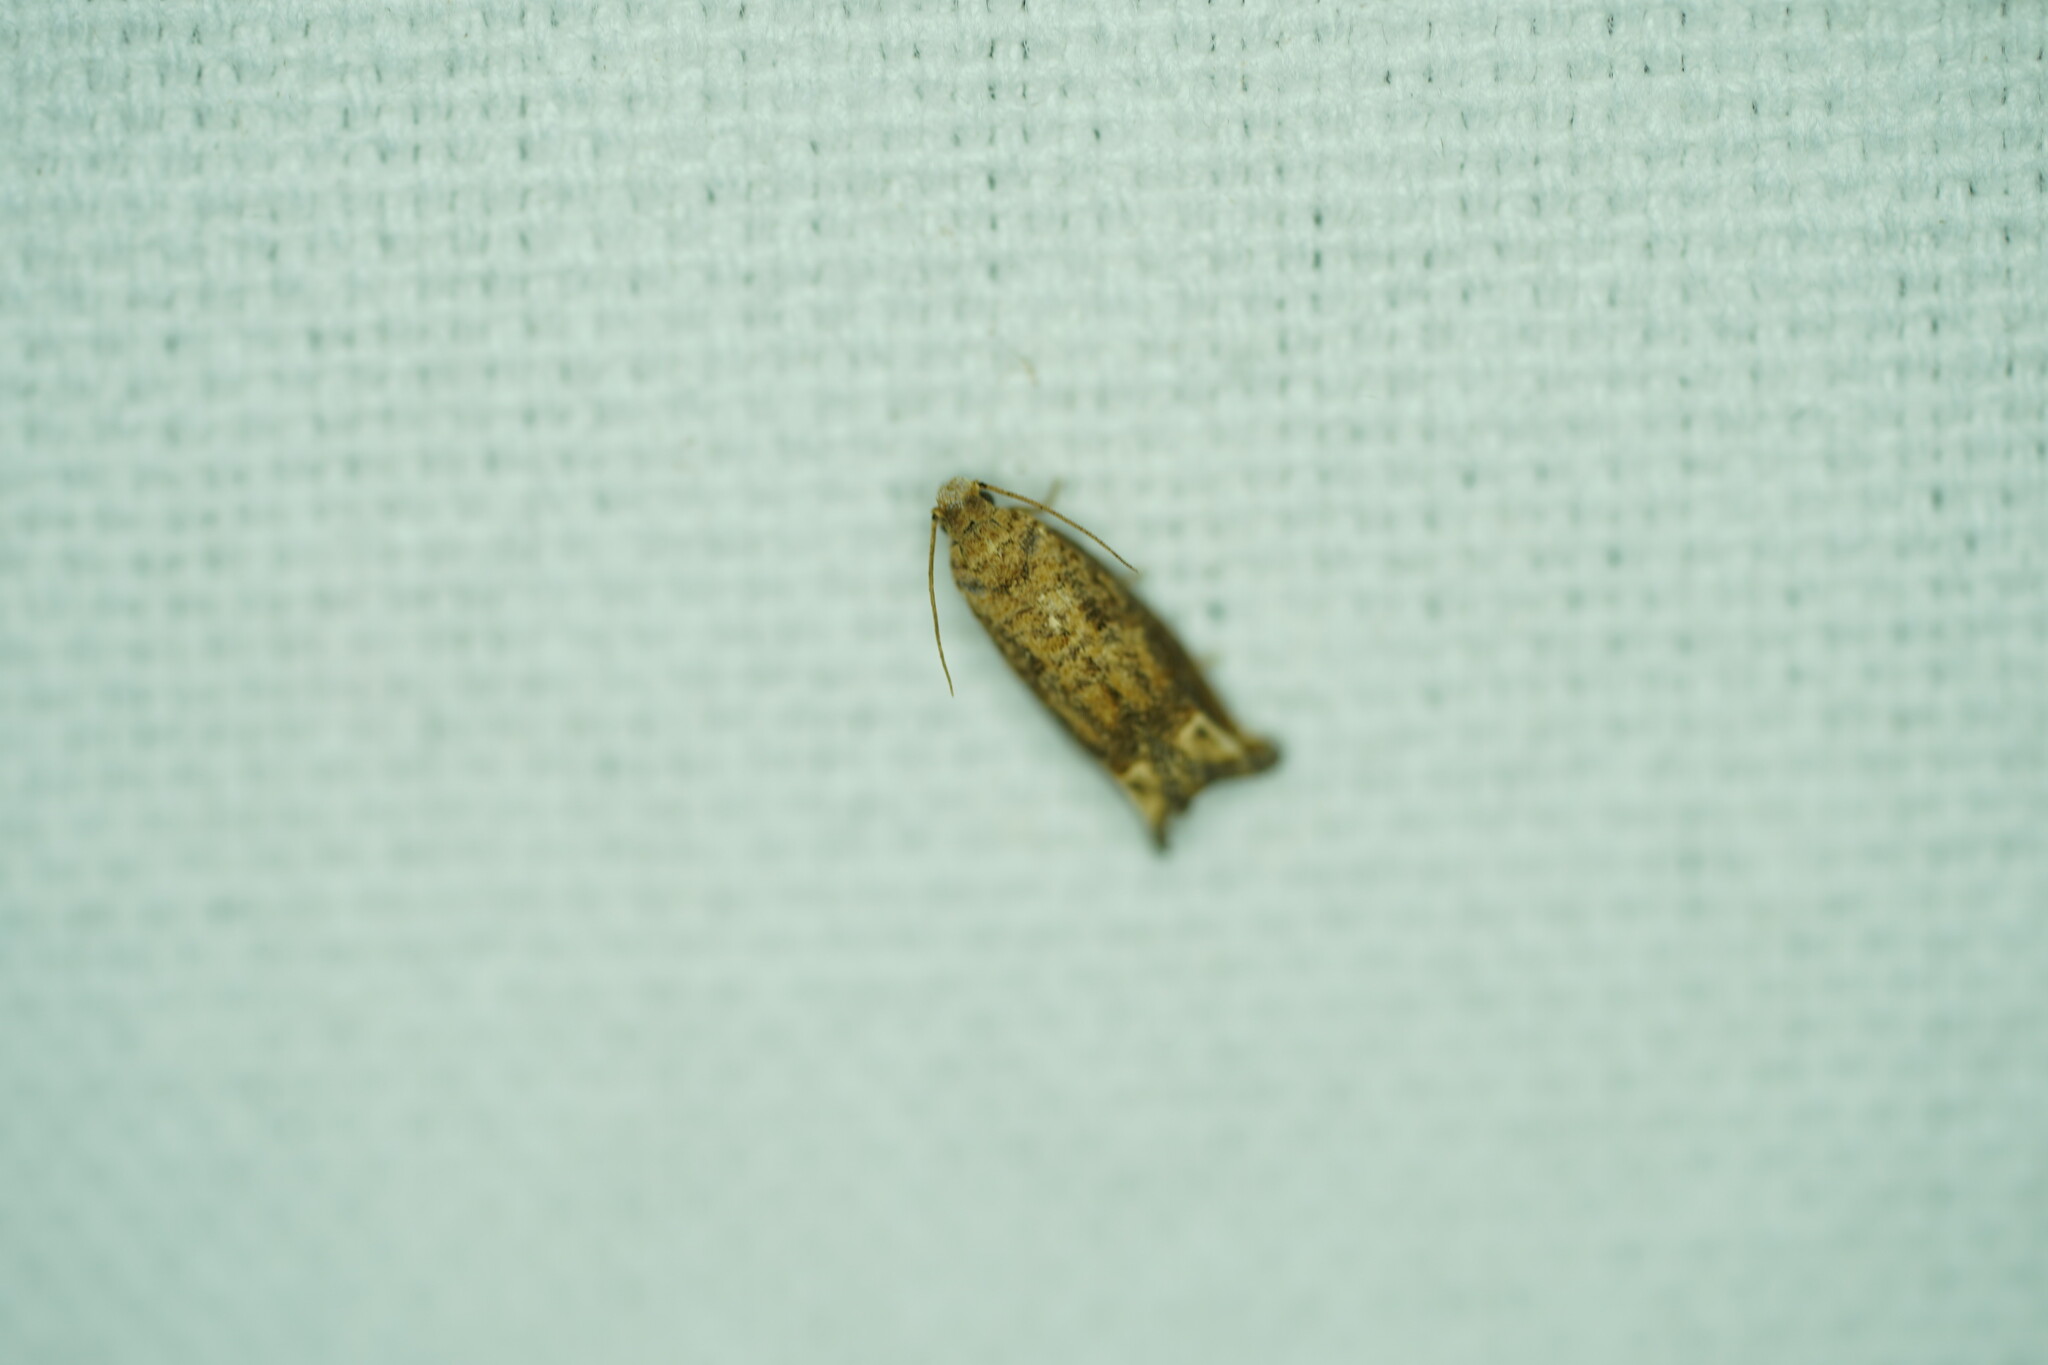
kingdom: Animalia
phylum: Arthropoda
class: Insecta
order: Lepidoptera
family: Tortricidae
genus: Epiblema
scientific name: Epiblema abruptana
